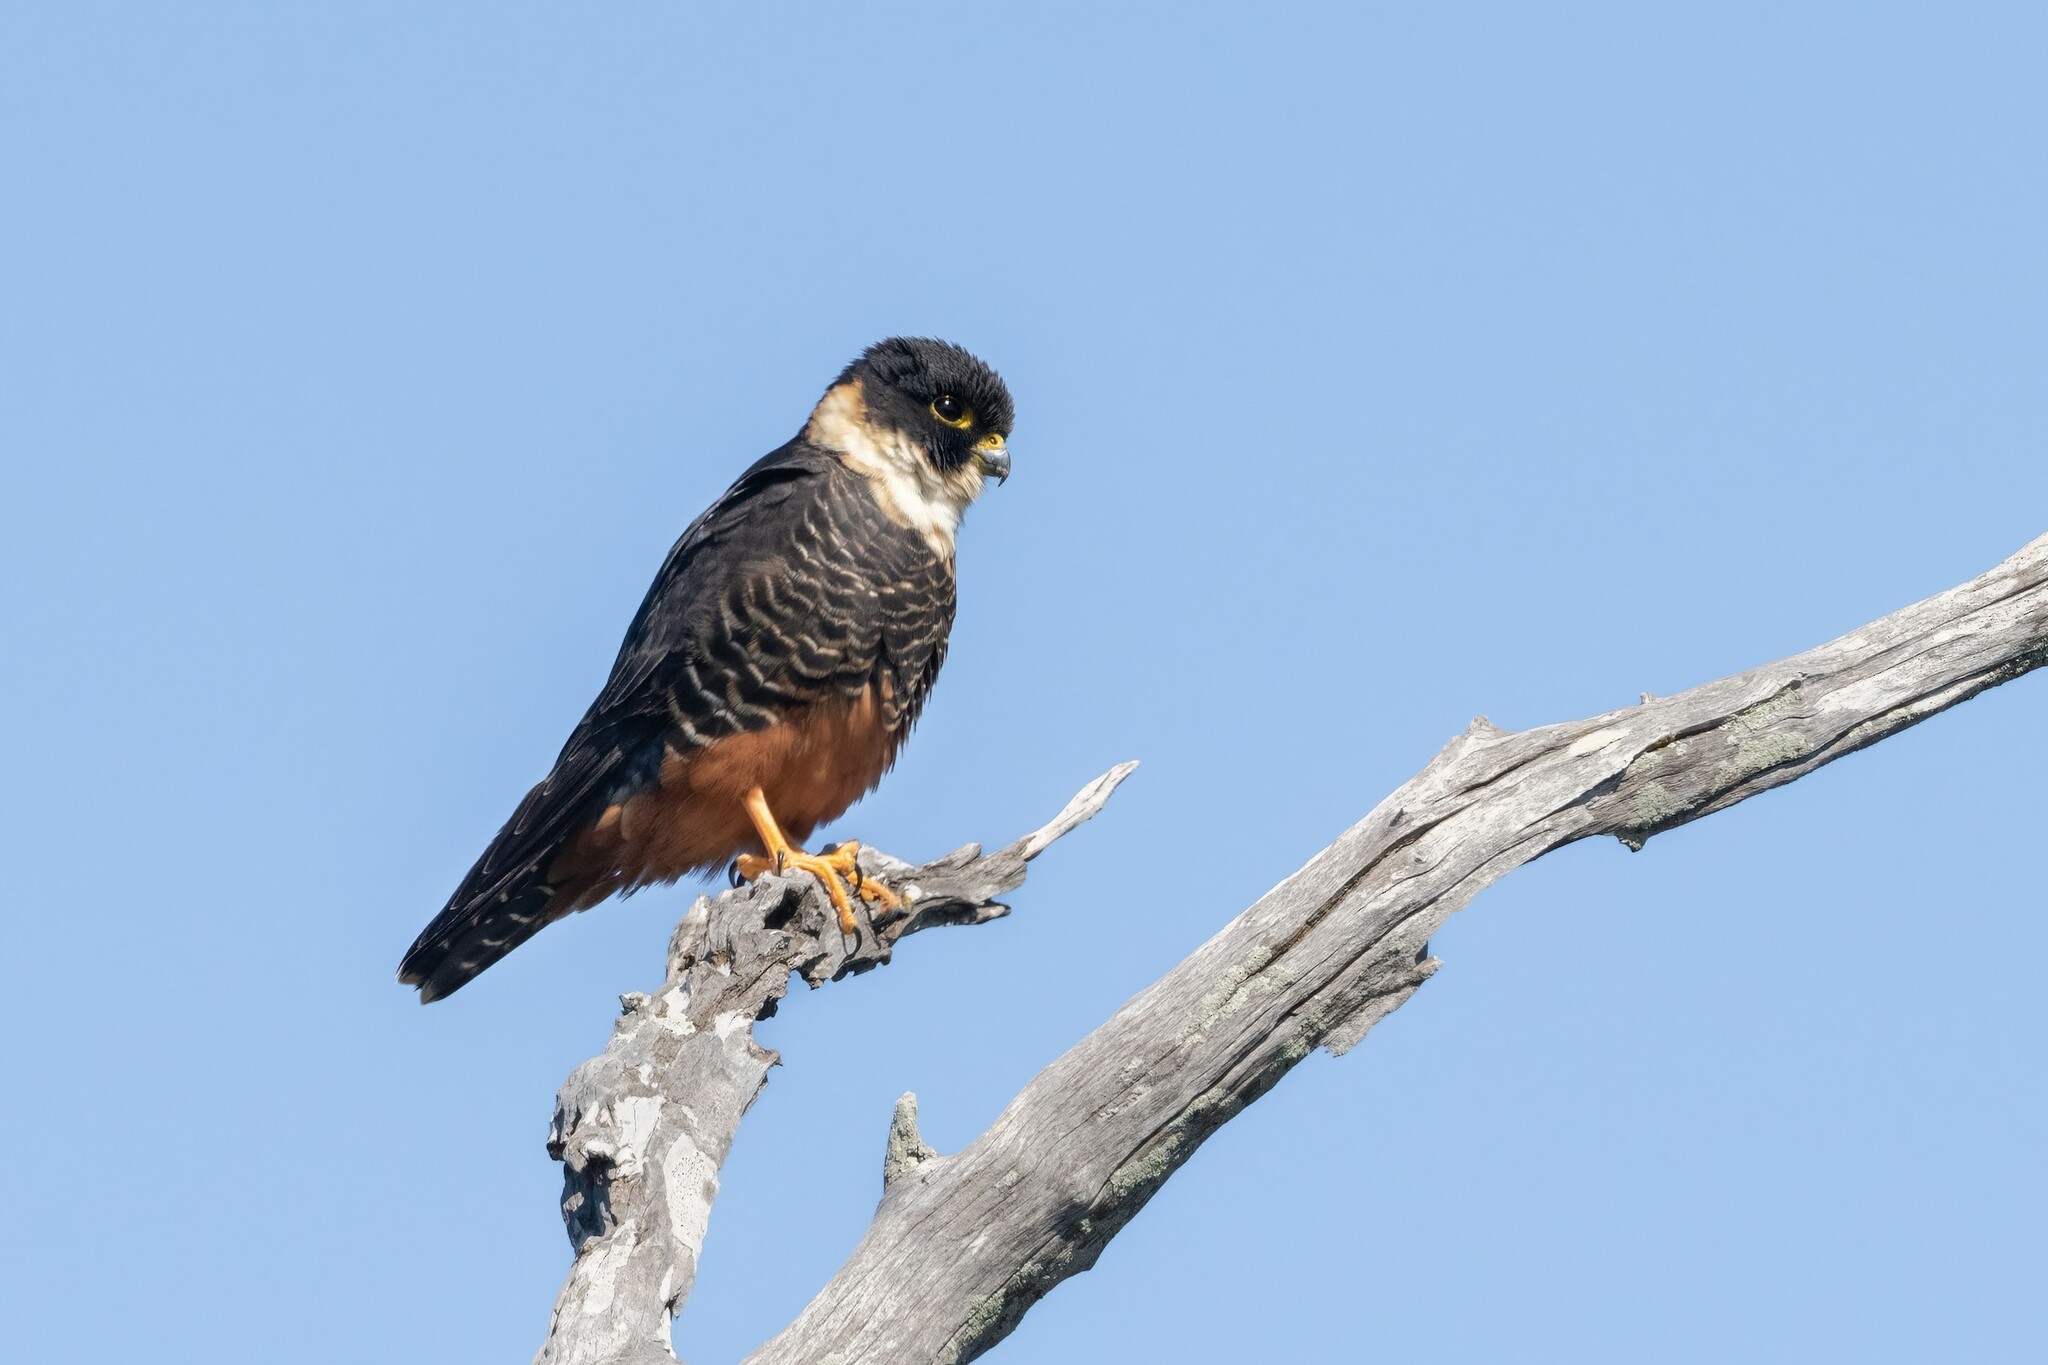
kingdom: Animalia
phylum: Chordata
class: Aves
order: Falconiformes
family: Falconidae
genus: Falco
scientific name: Falco rufigularis
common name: Bat falcon
